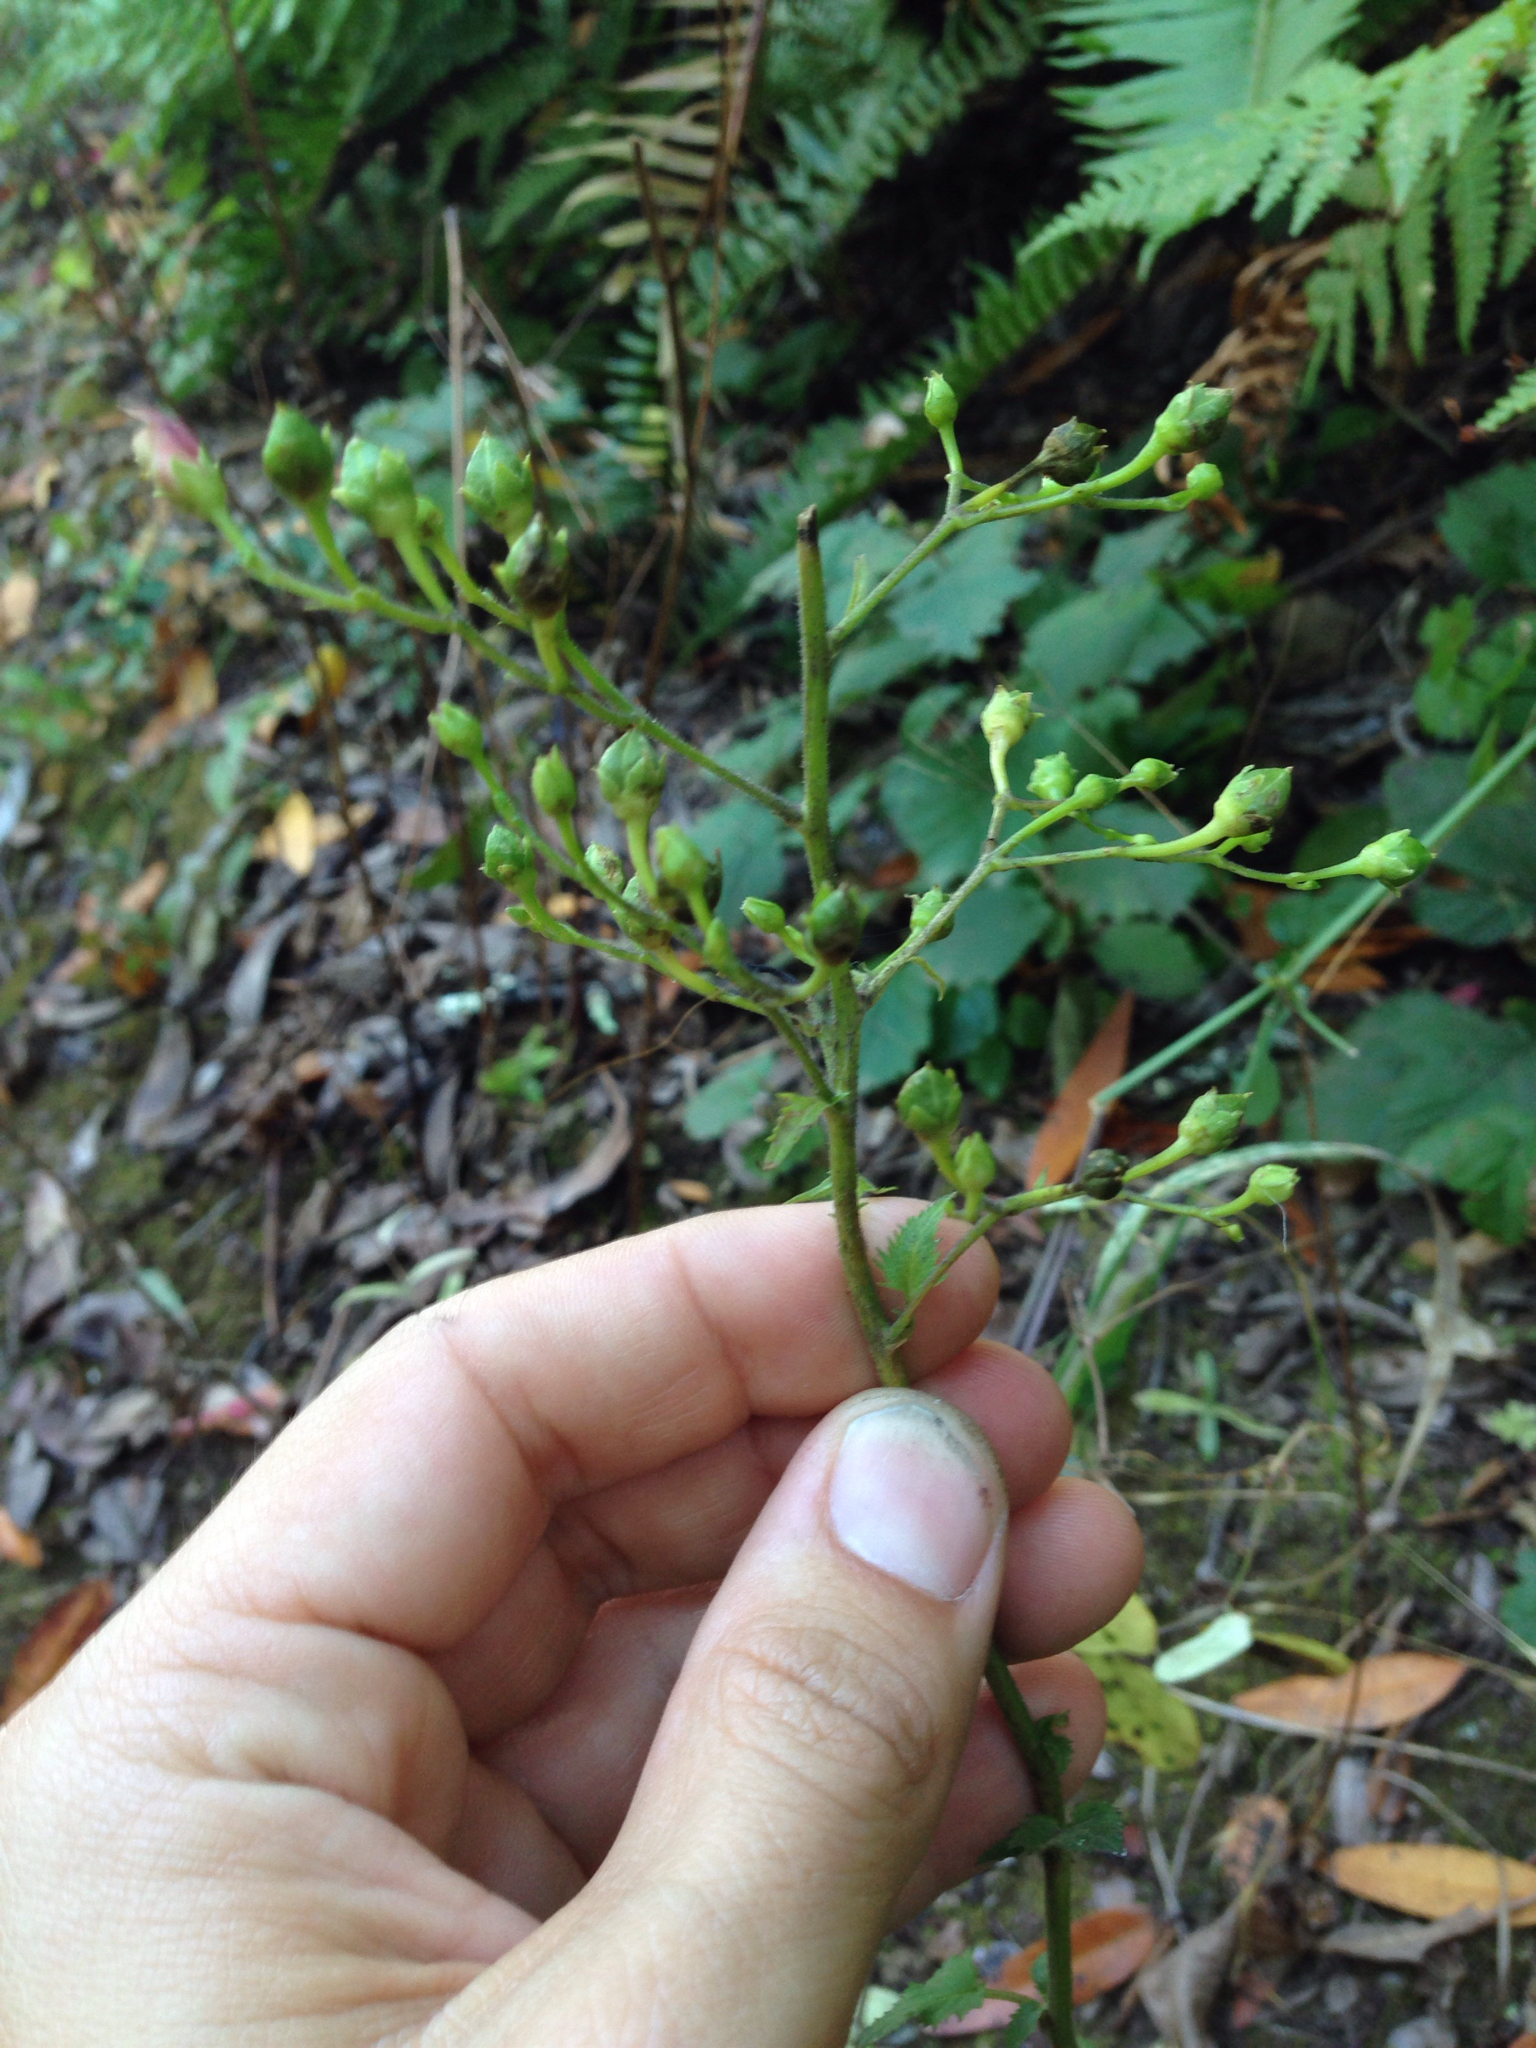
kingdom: Plantae
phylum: Tracheophyta
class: Magnoliopsida
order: Lamiales
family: Scrophulariaceae
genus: Scrophularia
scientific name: Scrophularia californica
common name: California figwort
